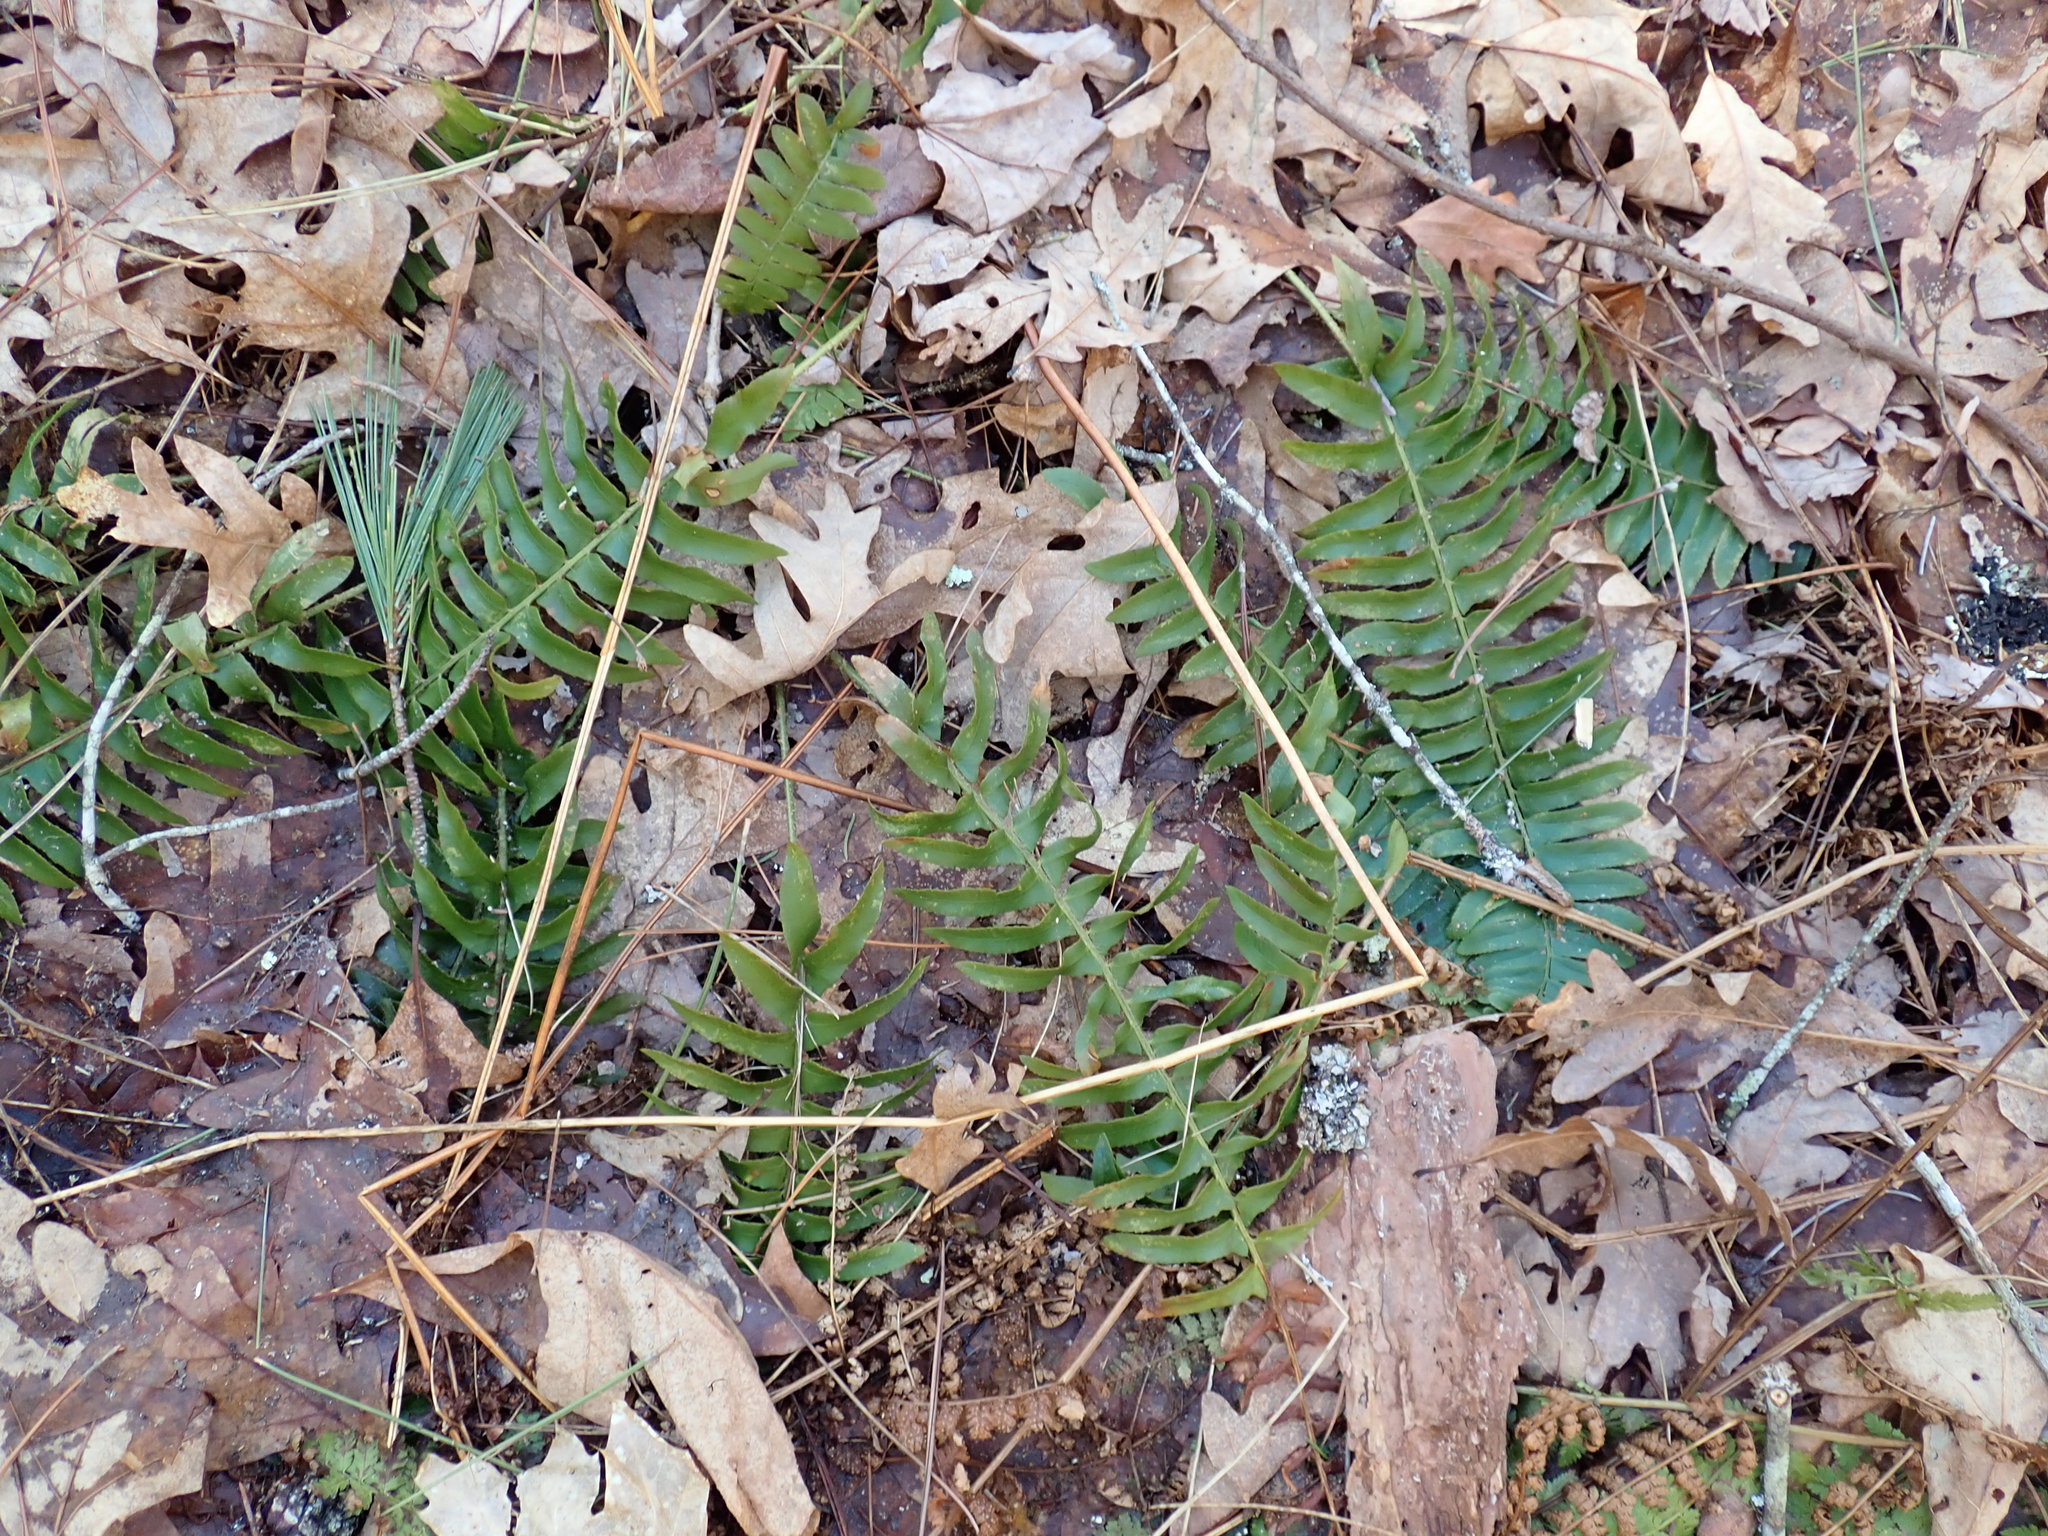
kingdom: Plantae
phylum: Tracheophyta
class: Polypodiopsida
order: Polypodiales
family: Dryopteridaceae
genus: Polystichum
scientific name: Polystichum acrostichoides
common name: Christmas fern
